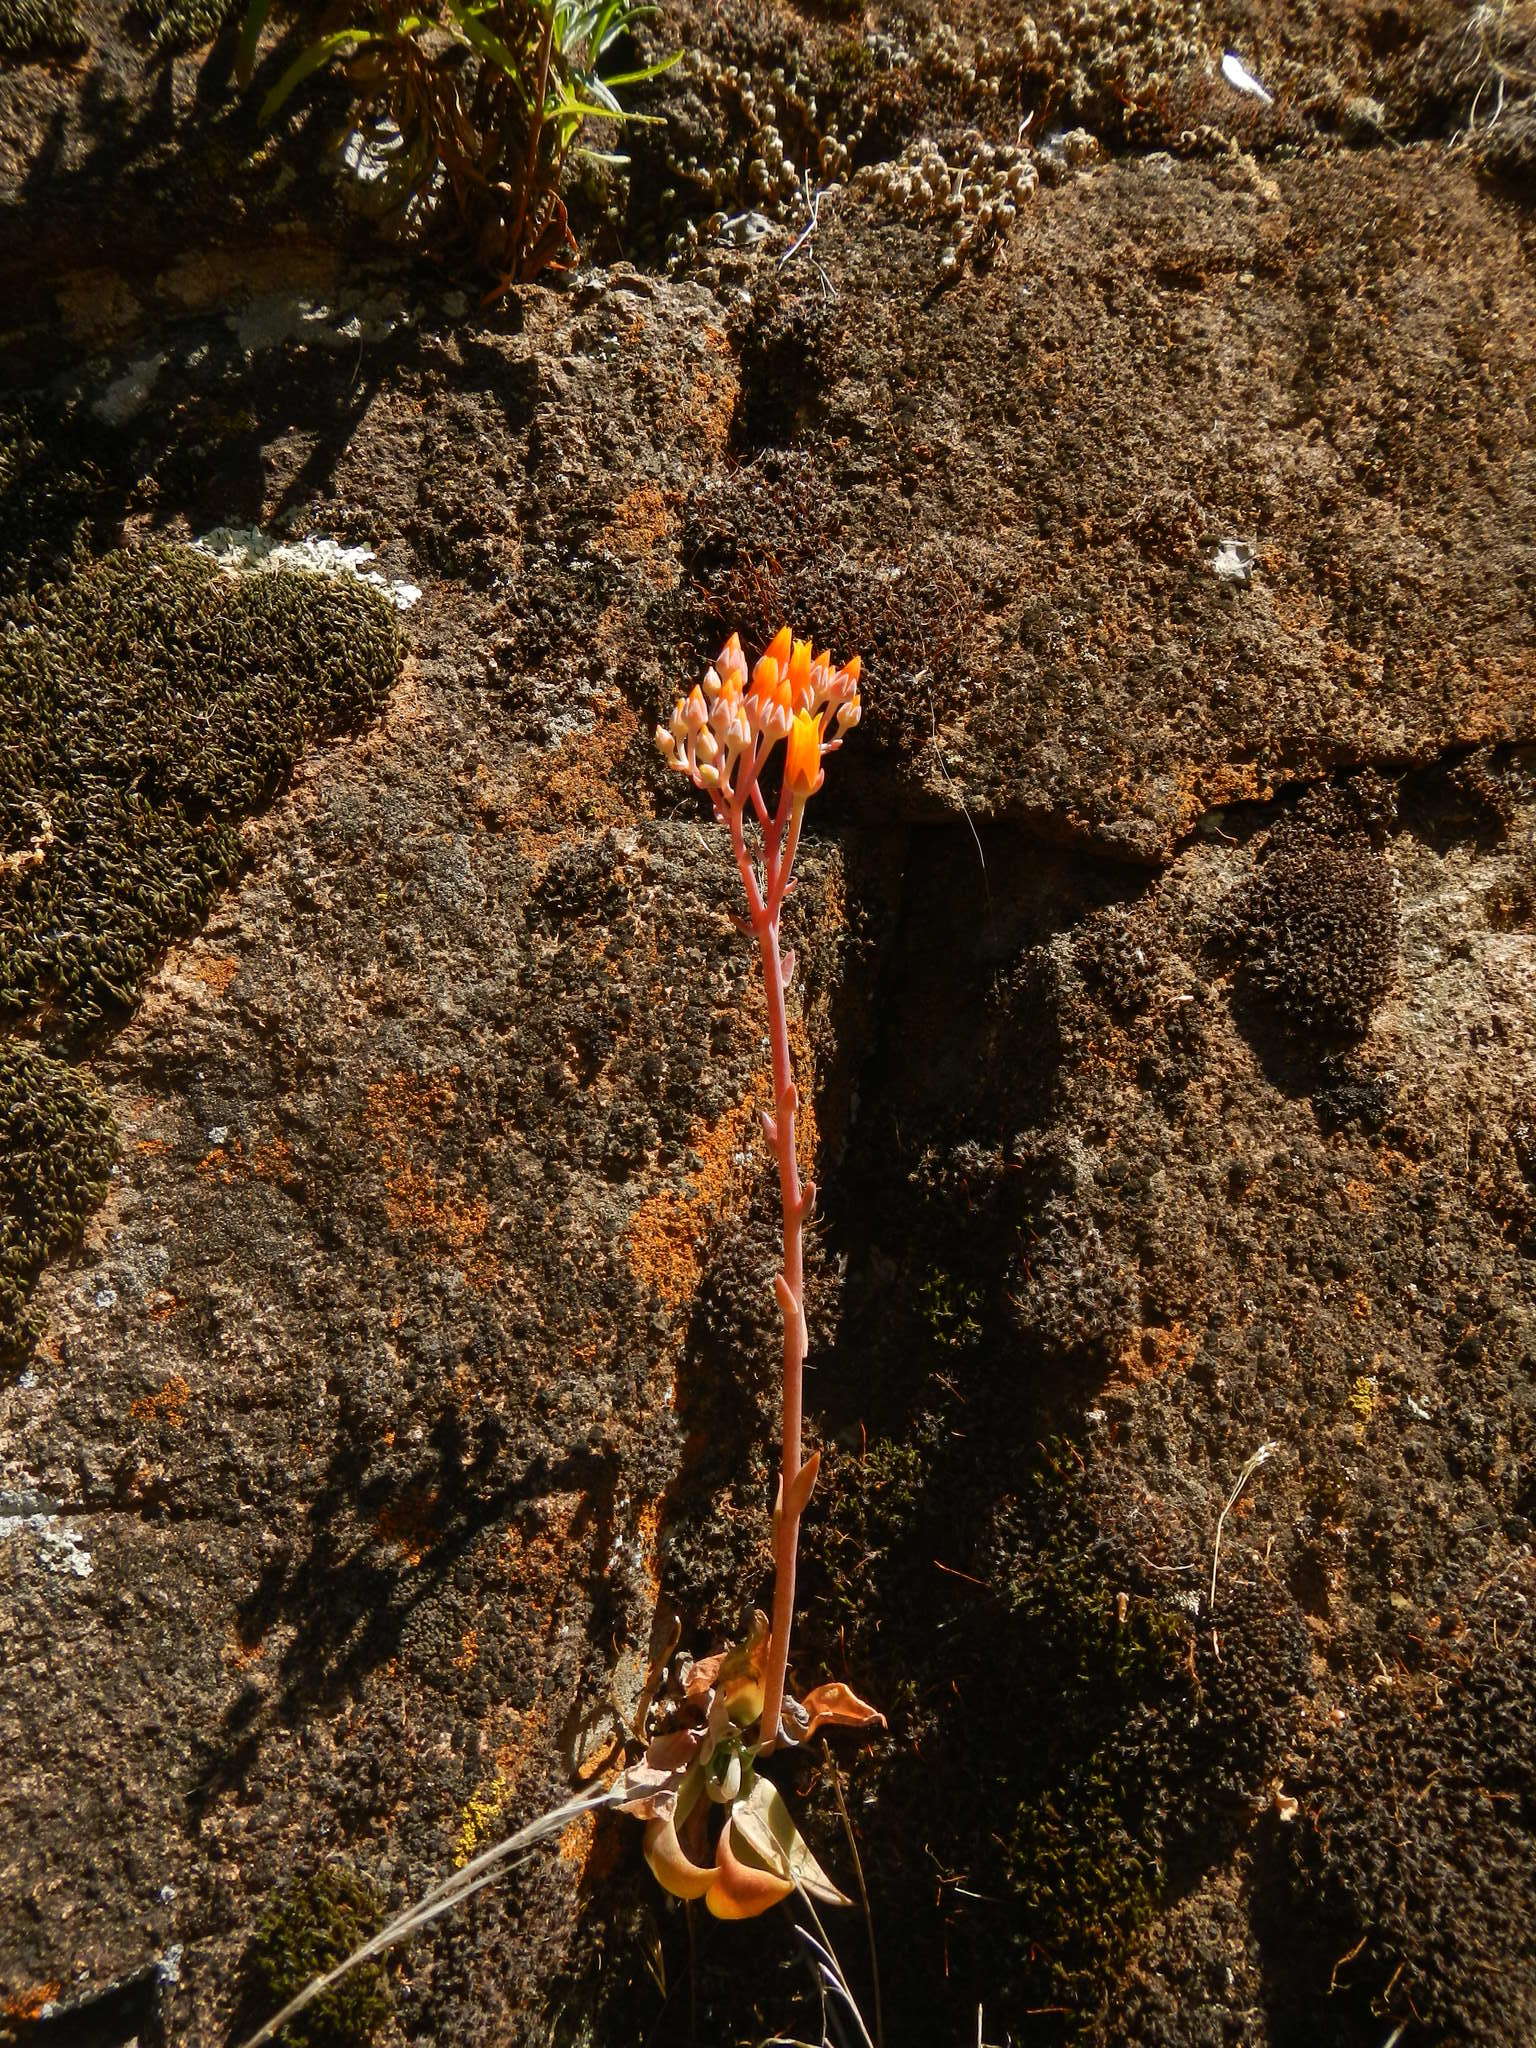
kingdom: Plantae
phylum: Tracheophyta
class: Magnoliopsida
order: Saxifragales
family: Crassulaceae
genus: Dudleya
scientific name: Dudleya cymosa
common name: Canyon dudleya
